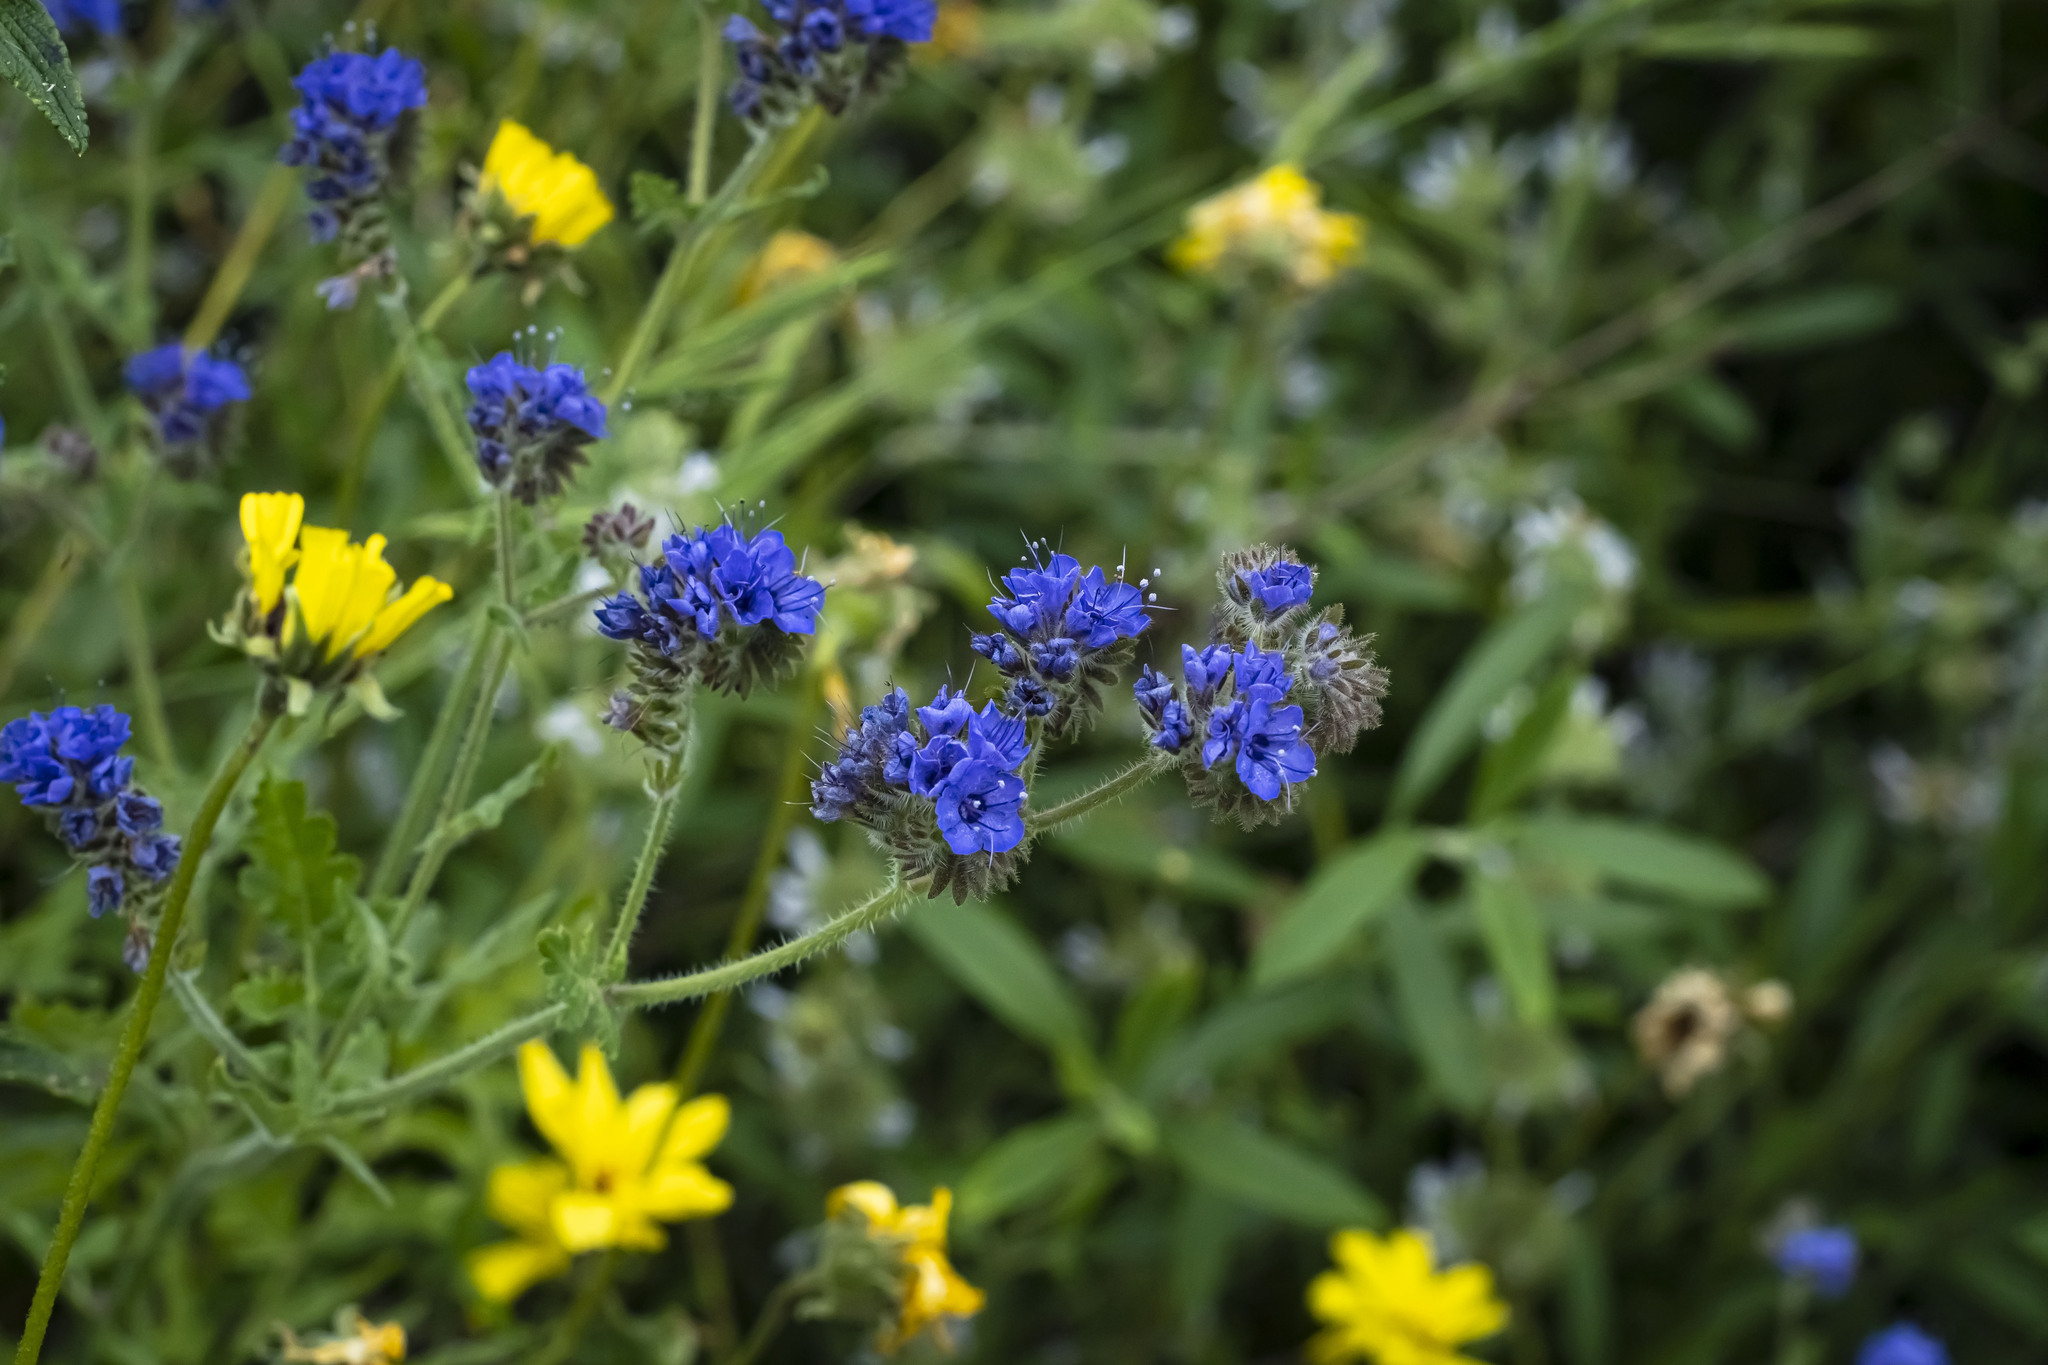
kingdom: Plantae
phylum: Tracheophyta
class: Magnoliopsida
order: Boraginales
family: Hydrophyllaceae
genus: Phacelia
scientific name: Phacelia distans
